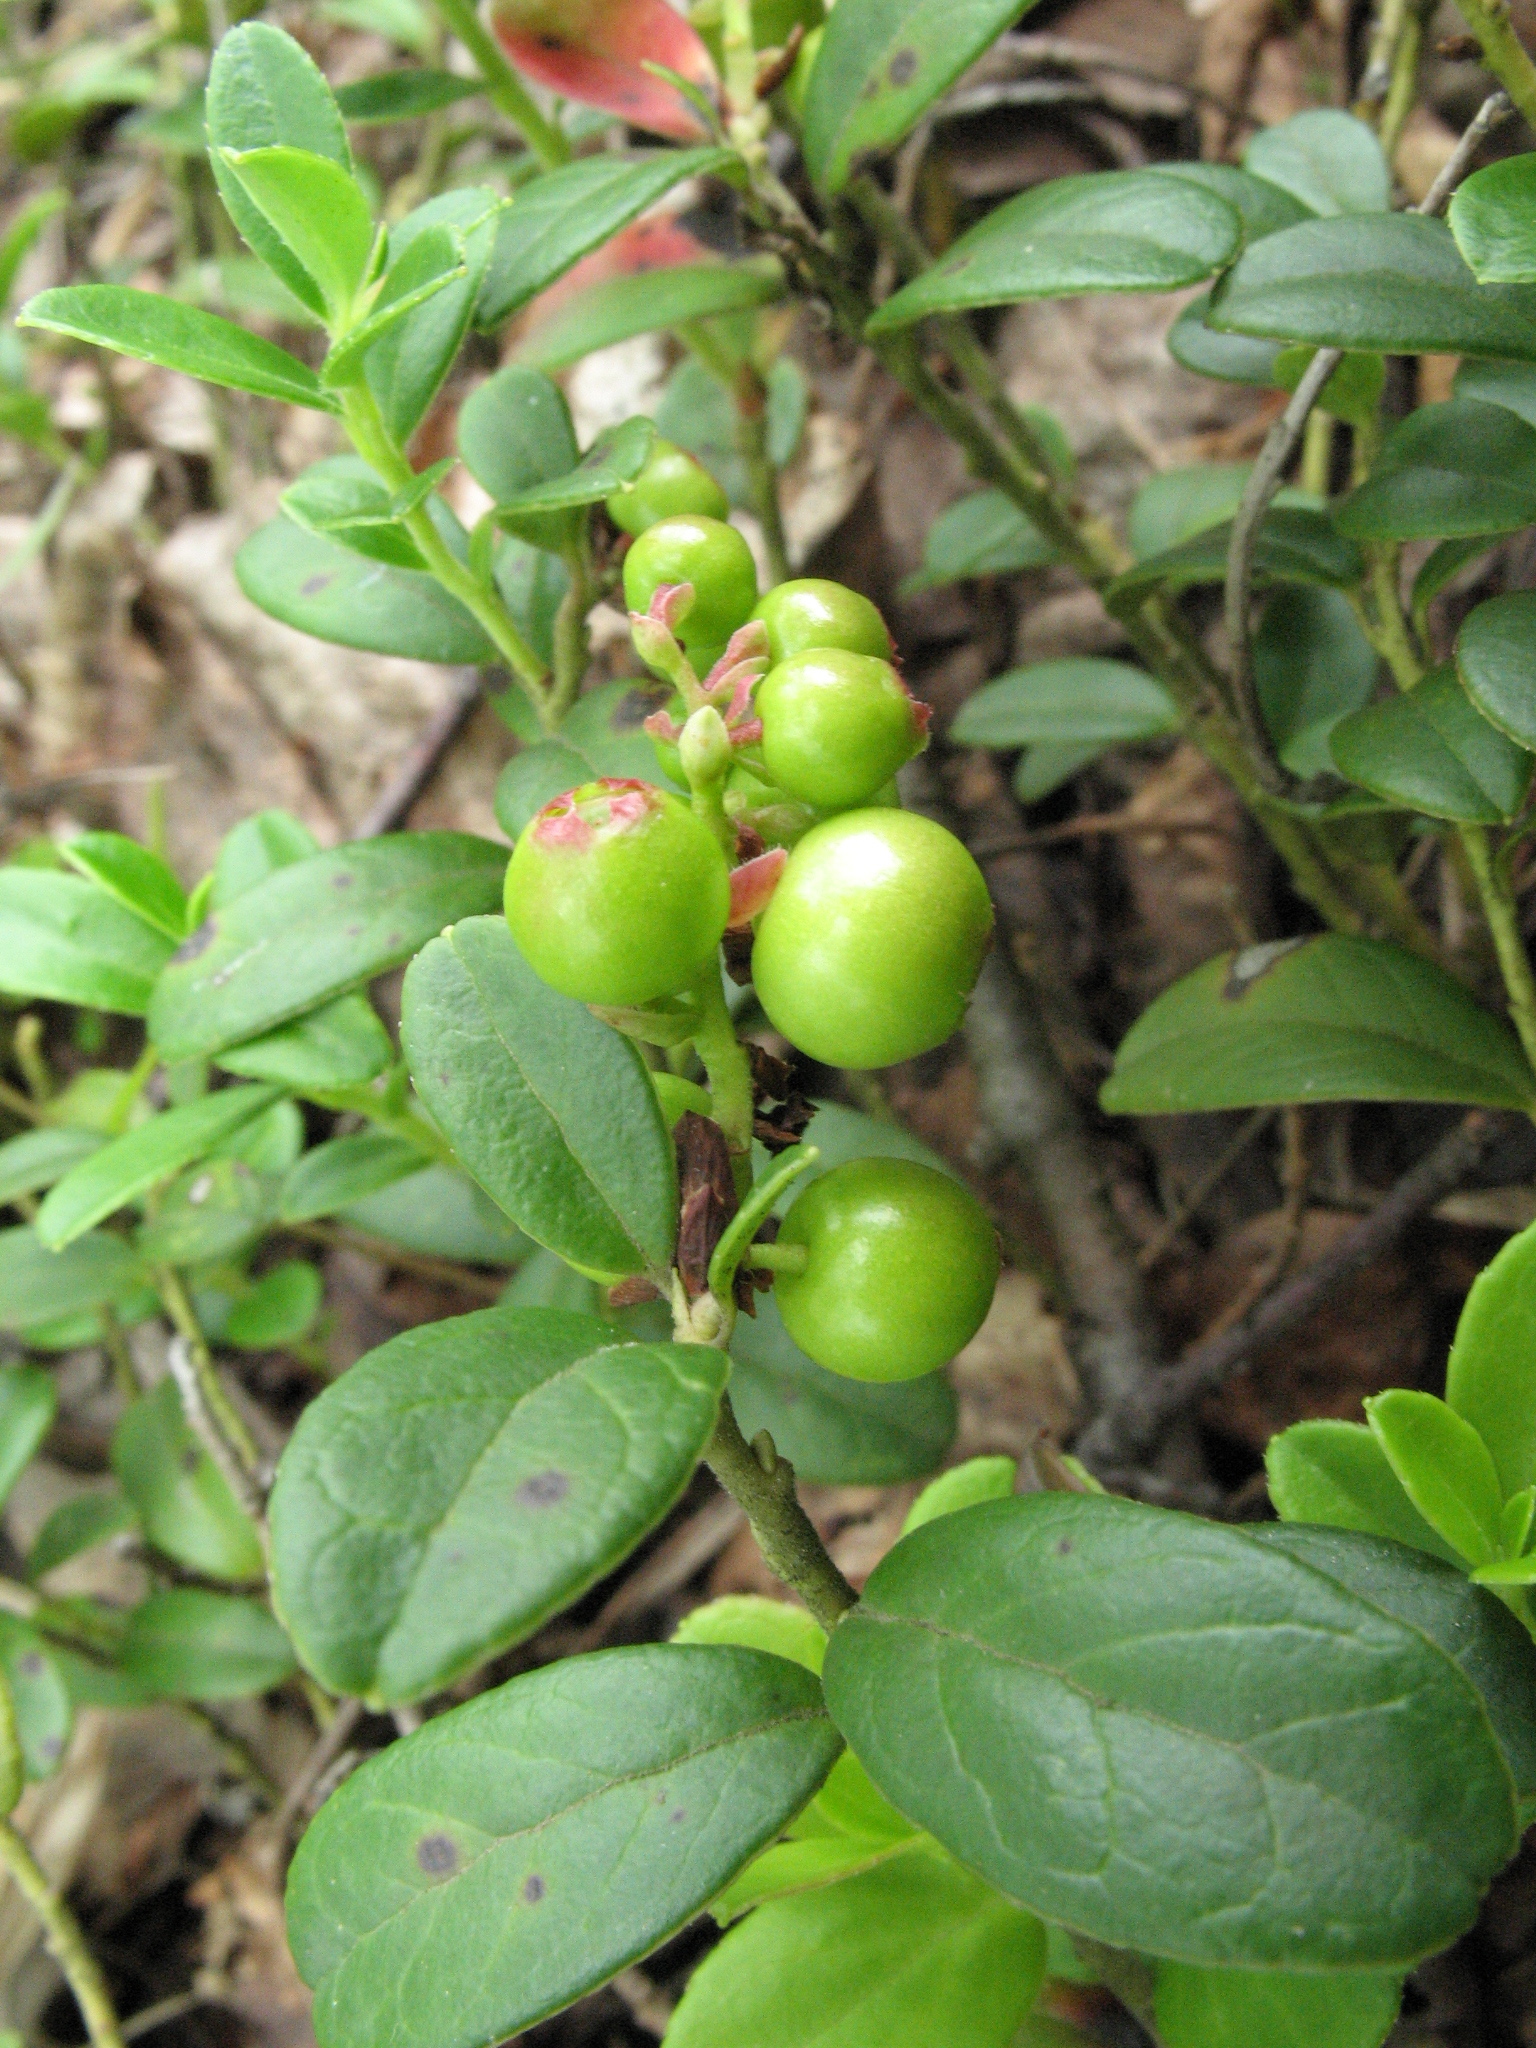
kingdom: Plantae
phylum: Tracheophyta
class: Magnoliopsida
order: Ericales
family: Ericaceae
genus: Vaccinium
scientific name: Vaccinium vitis-idaea
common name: Cowberry
